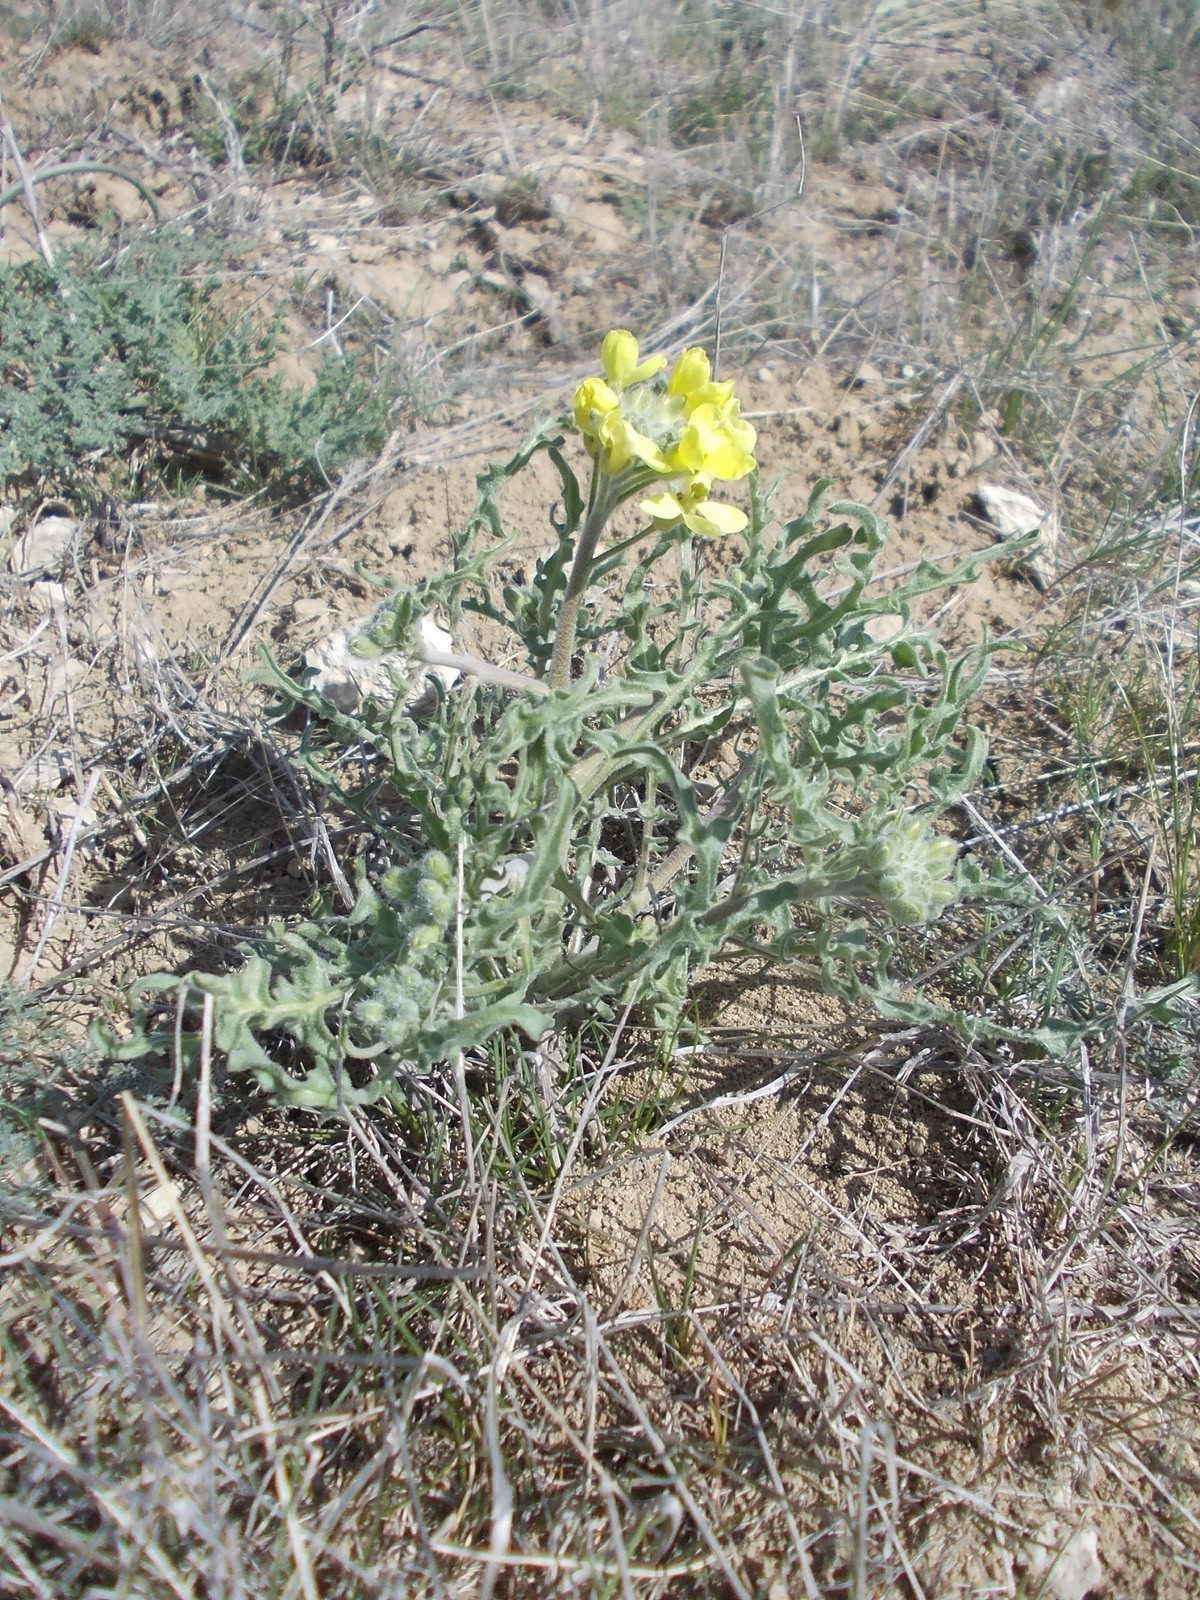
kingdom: Plantae
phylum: Tracheophyta
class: Magnoliopsida
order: Brassicales
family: Brassicaceae
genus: Sterigmostemum
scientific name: Sterigmostemum caspicum
